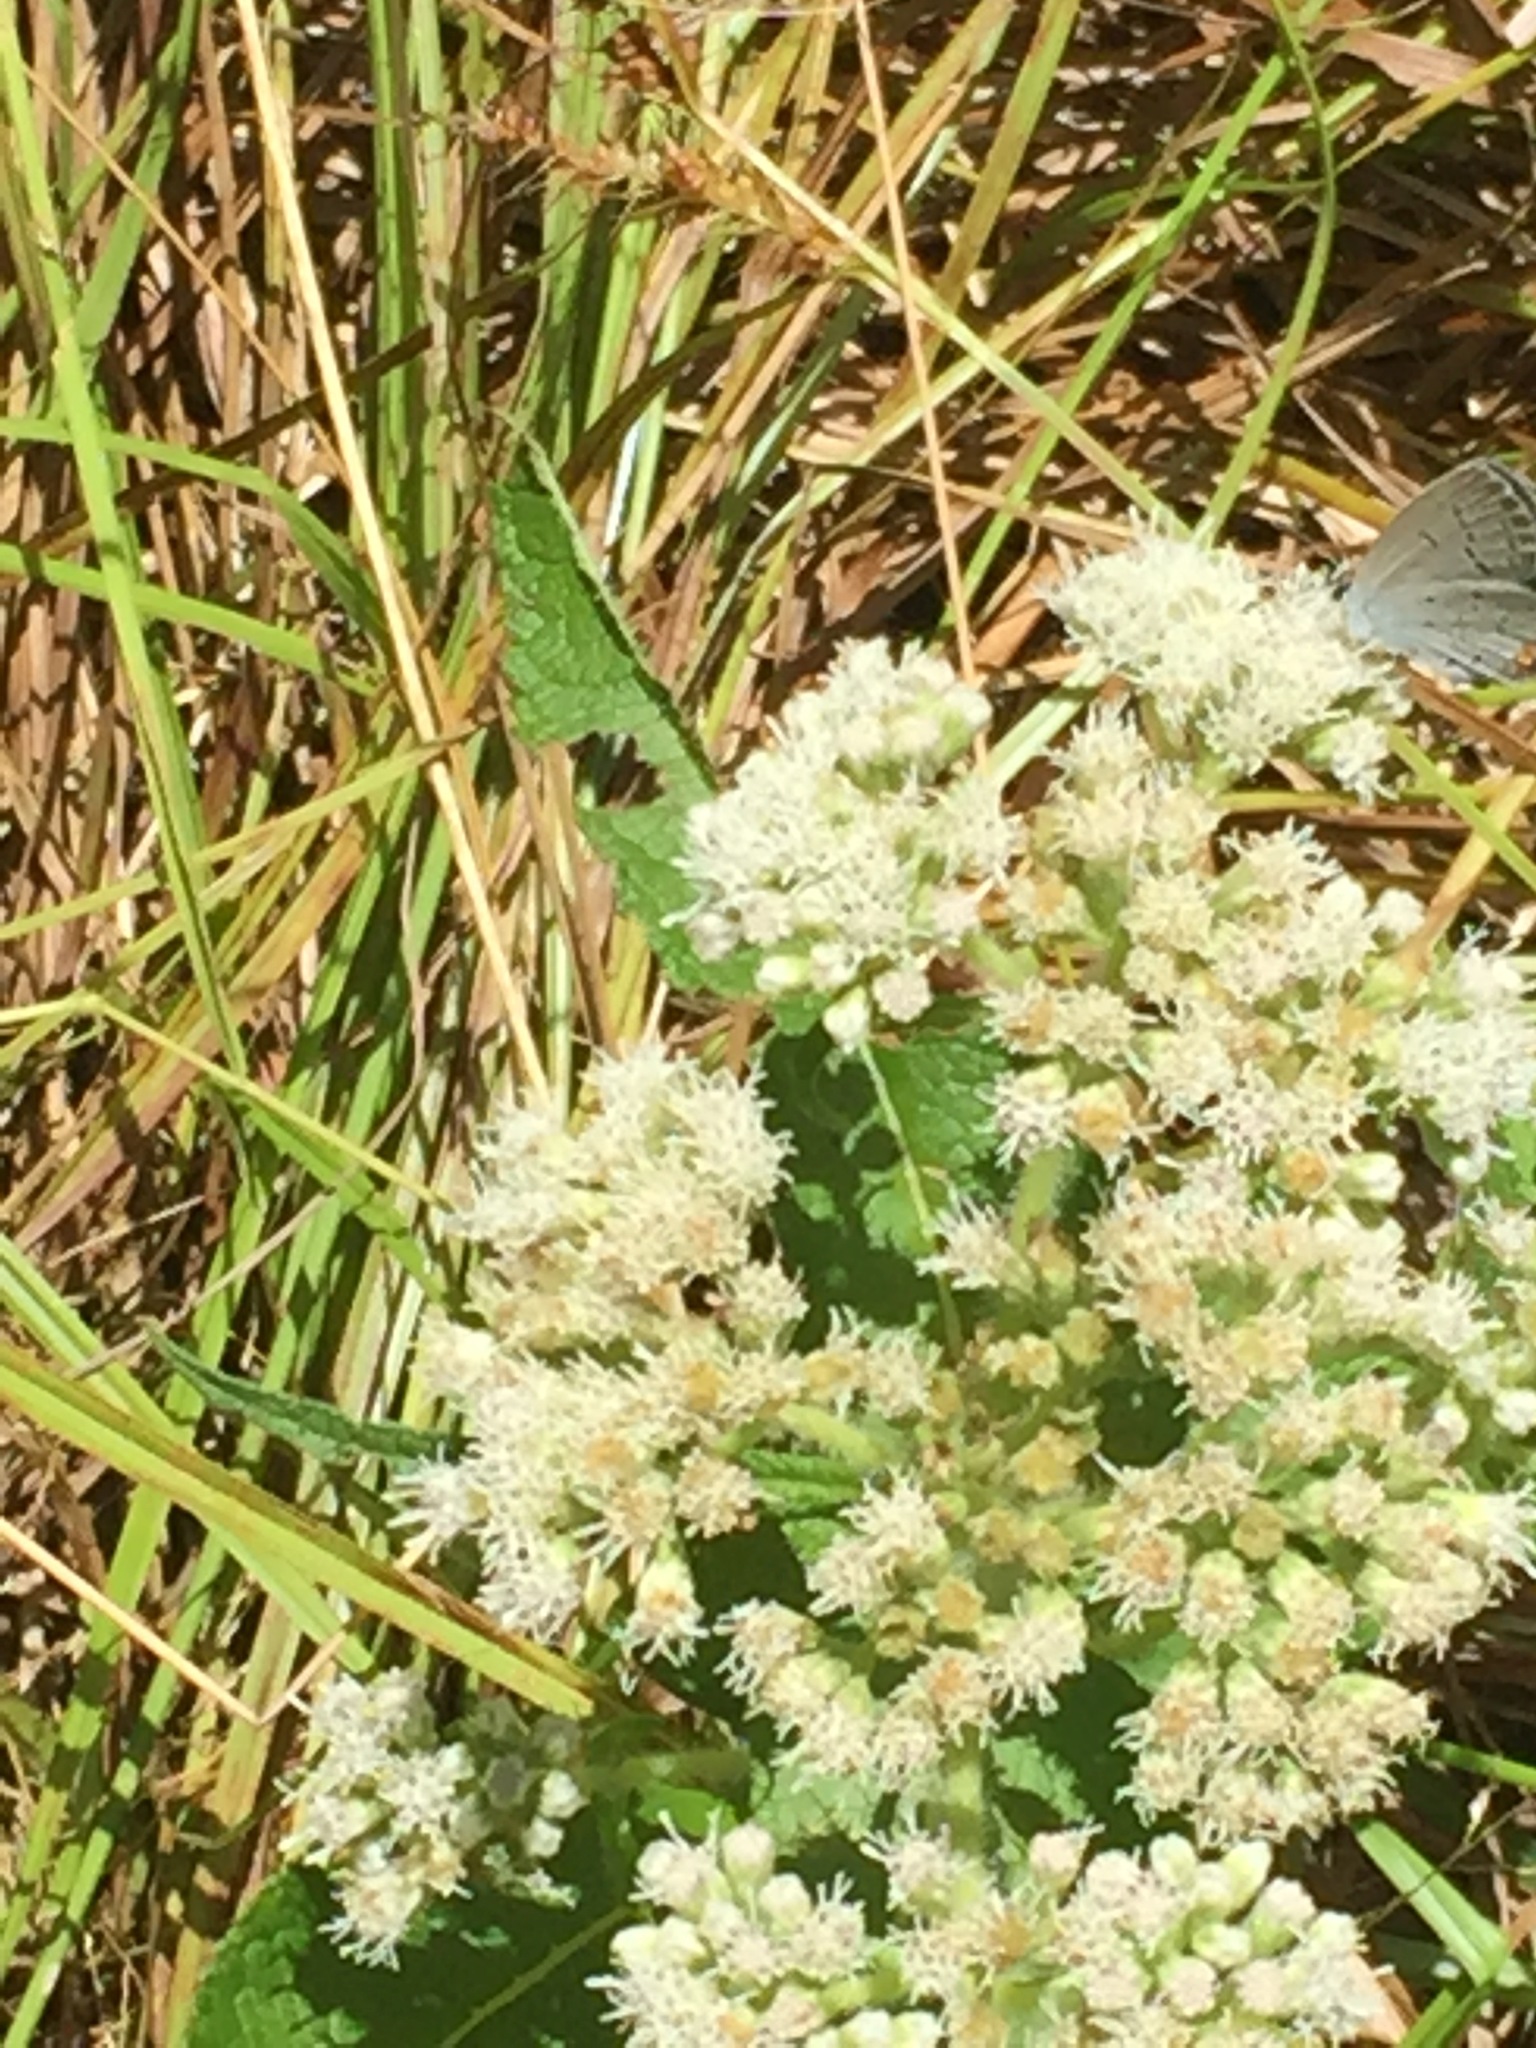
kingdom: Plantae
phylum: Tracheophyta
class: Magnoliopsida
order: Asterales
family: Asteraceae
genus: Eupatorium
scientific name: Eupatorium perfoliatum
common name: Boneset
